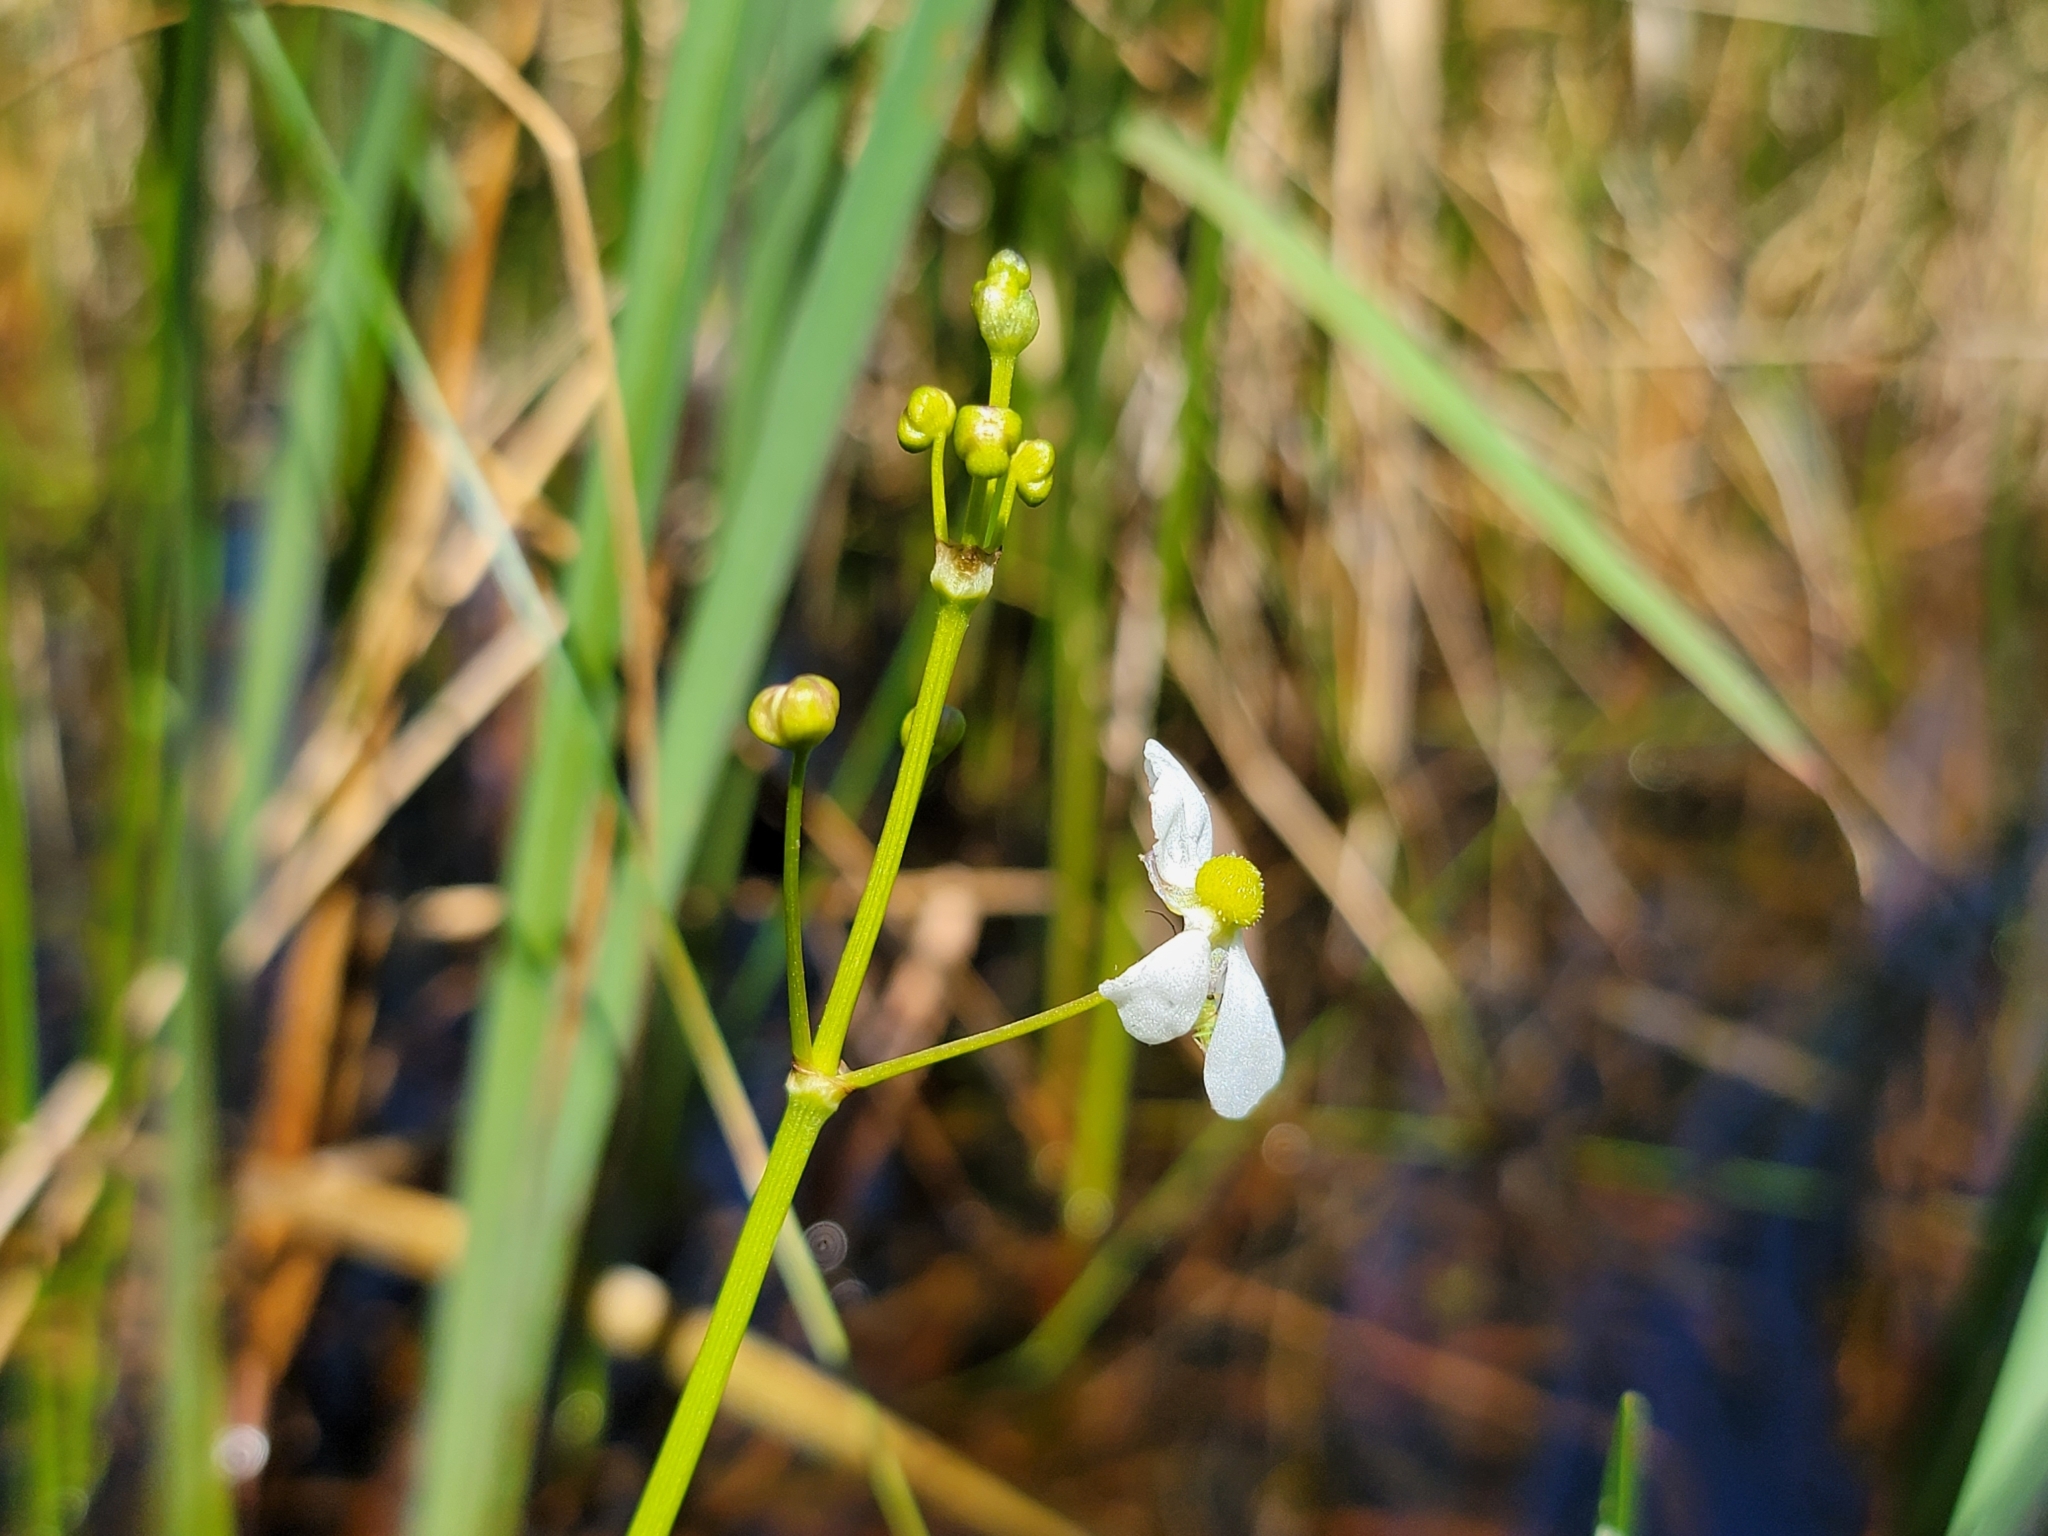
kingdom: Plantae
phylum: Tracheophyta
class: Liliopsida
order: Alismatales
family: Alismataceae
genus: Sagittaria
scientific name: Sagittaria graminea
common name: Grass-leaved arrowhead
